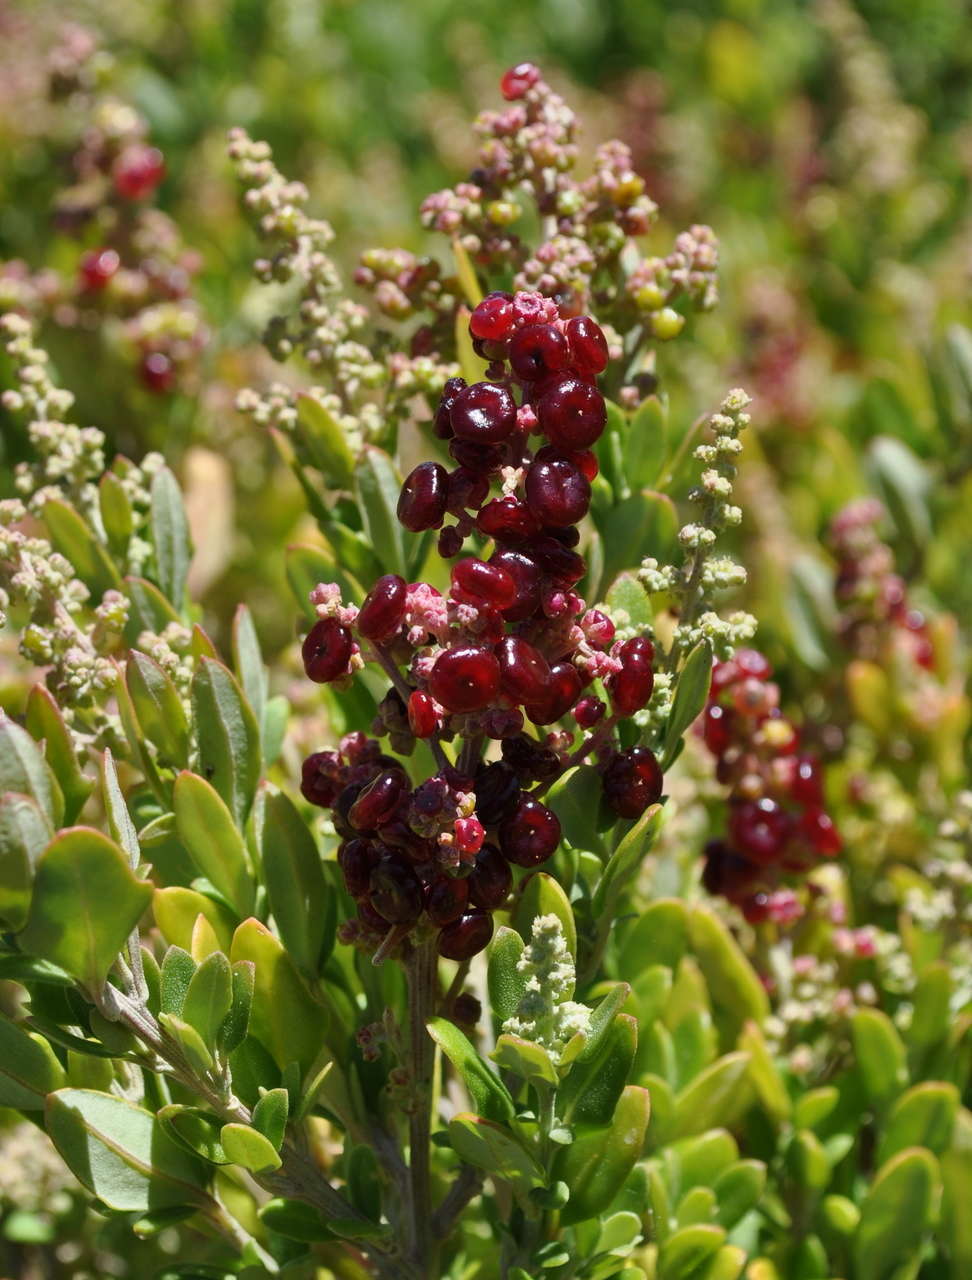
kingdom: Plantae
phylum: Tracheophyta
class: Magnoliopsida
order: Caryophyllales
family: Amaranthaceae
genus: Chenopodium
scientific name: Chenopodium candolleanum
